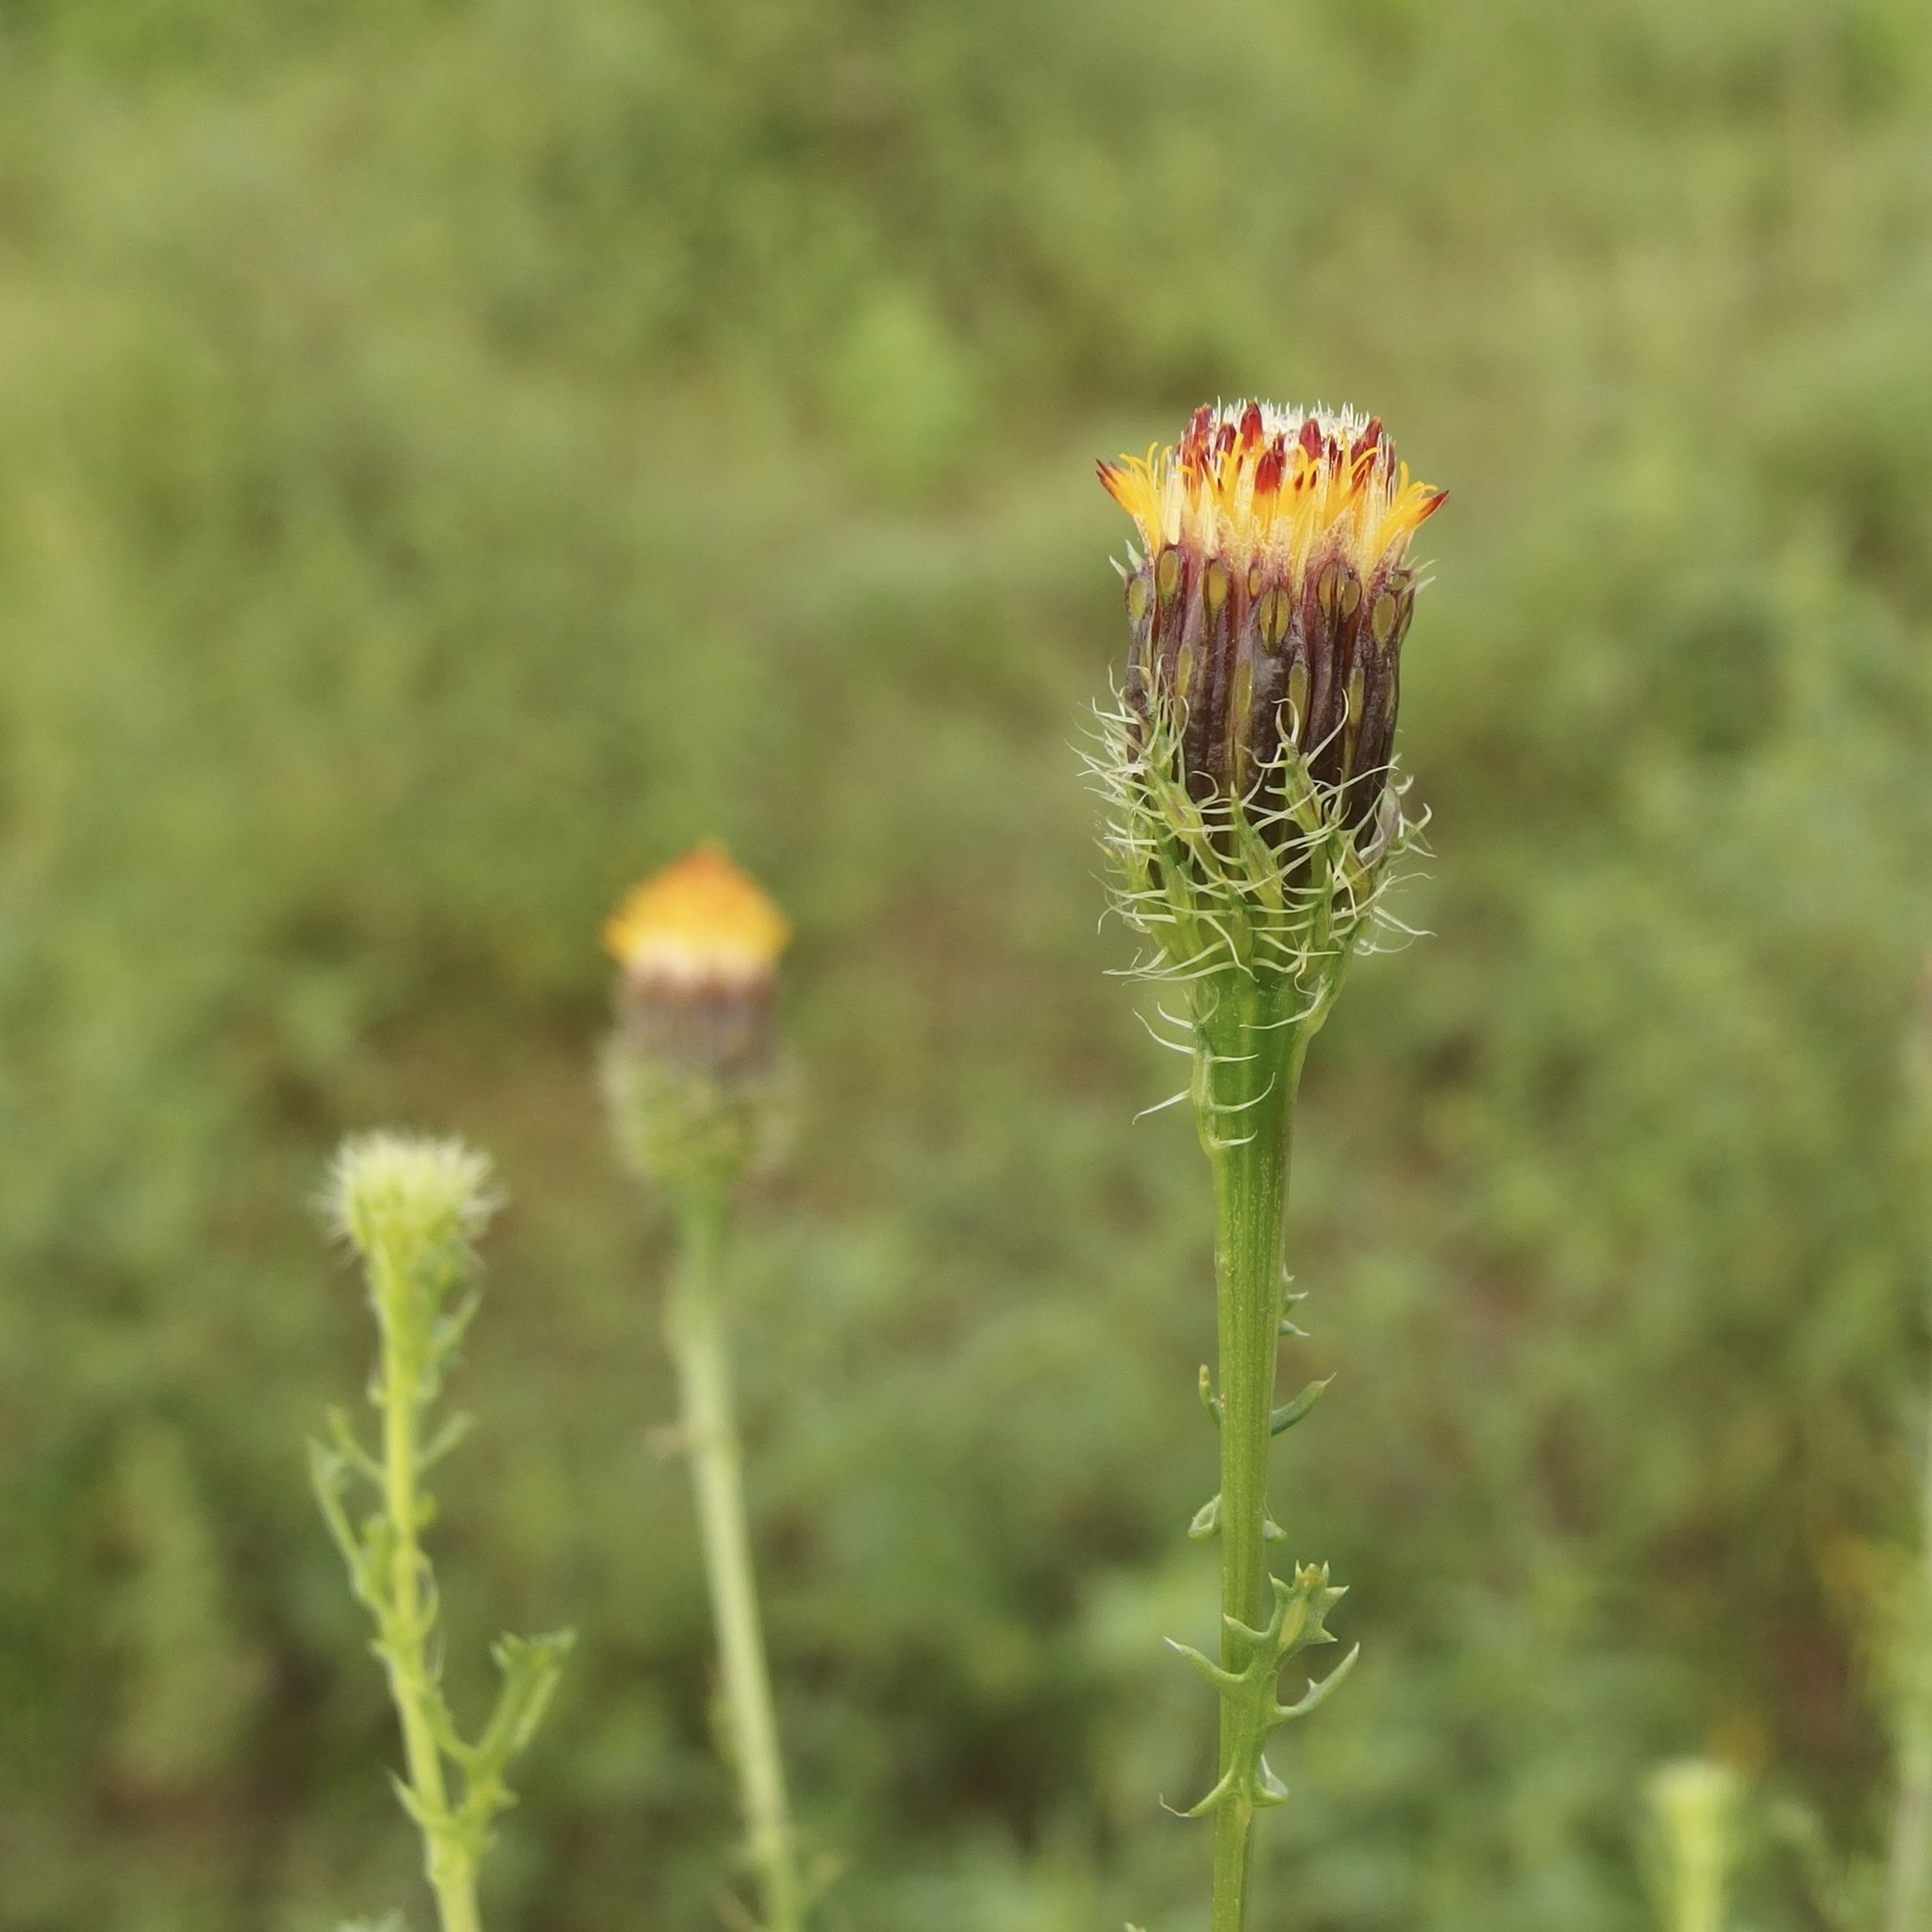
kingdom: Plantae
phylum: Tracheophyta
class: Magnoliopsida
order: Asterales
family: Asteraceae
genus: Adenophyllum
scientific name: Adenophyllum porophyllum
